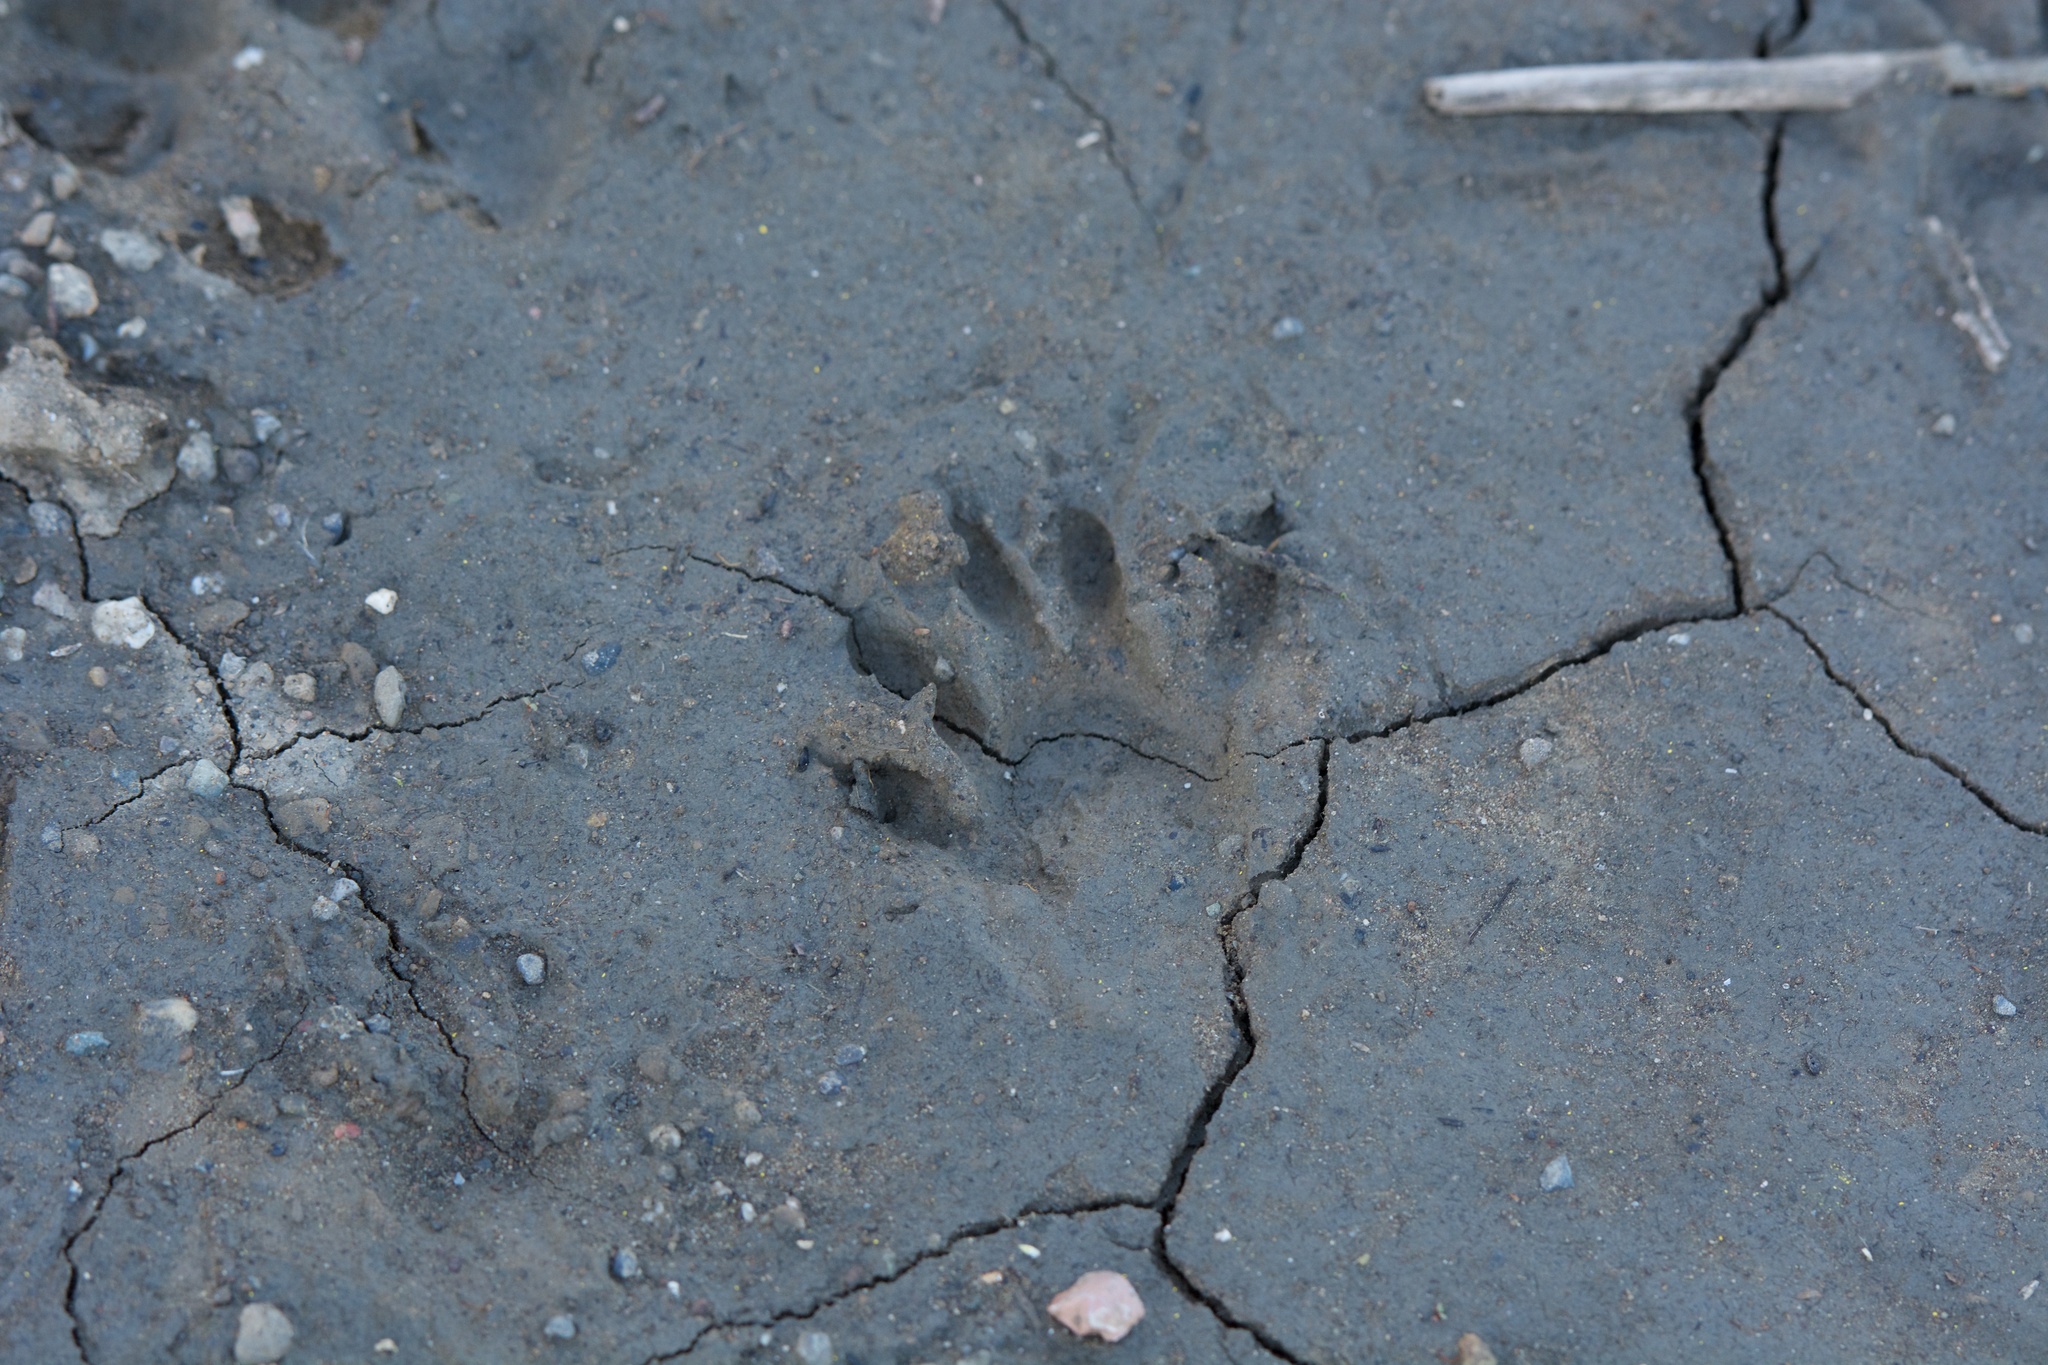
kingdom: Animalia
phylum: Chordata
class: Mammalia
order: Carnivora
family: Procyonidae
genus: Procyon
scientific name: Procyon lotor
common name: Raccoon
